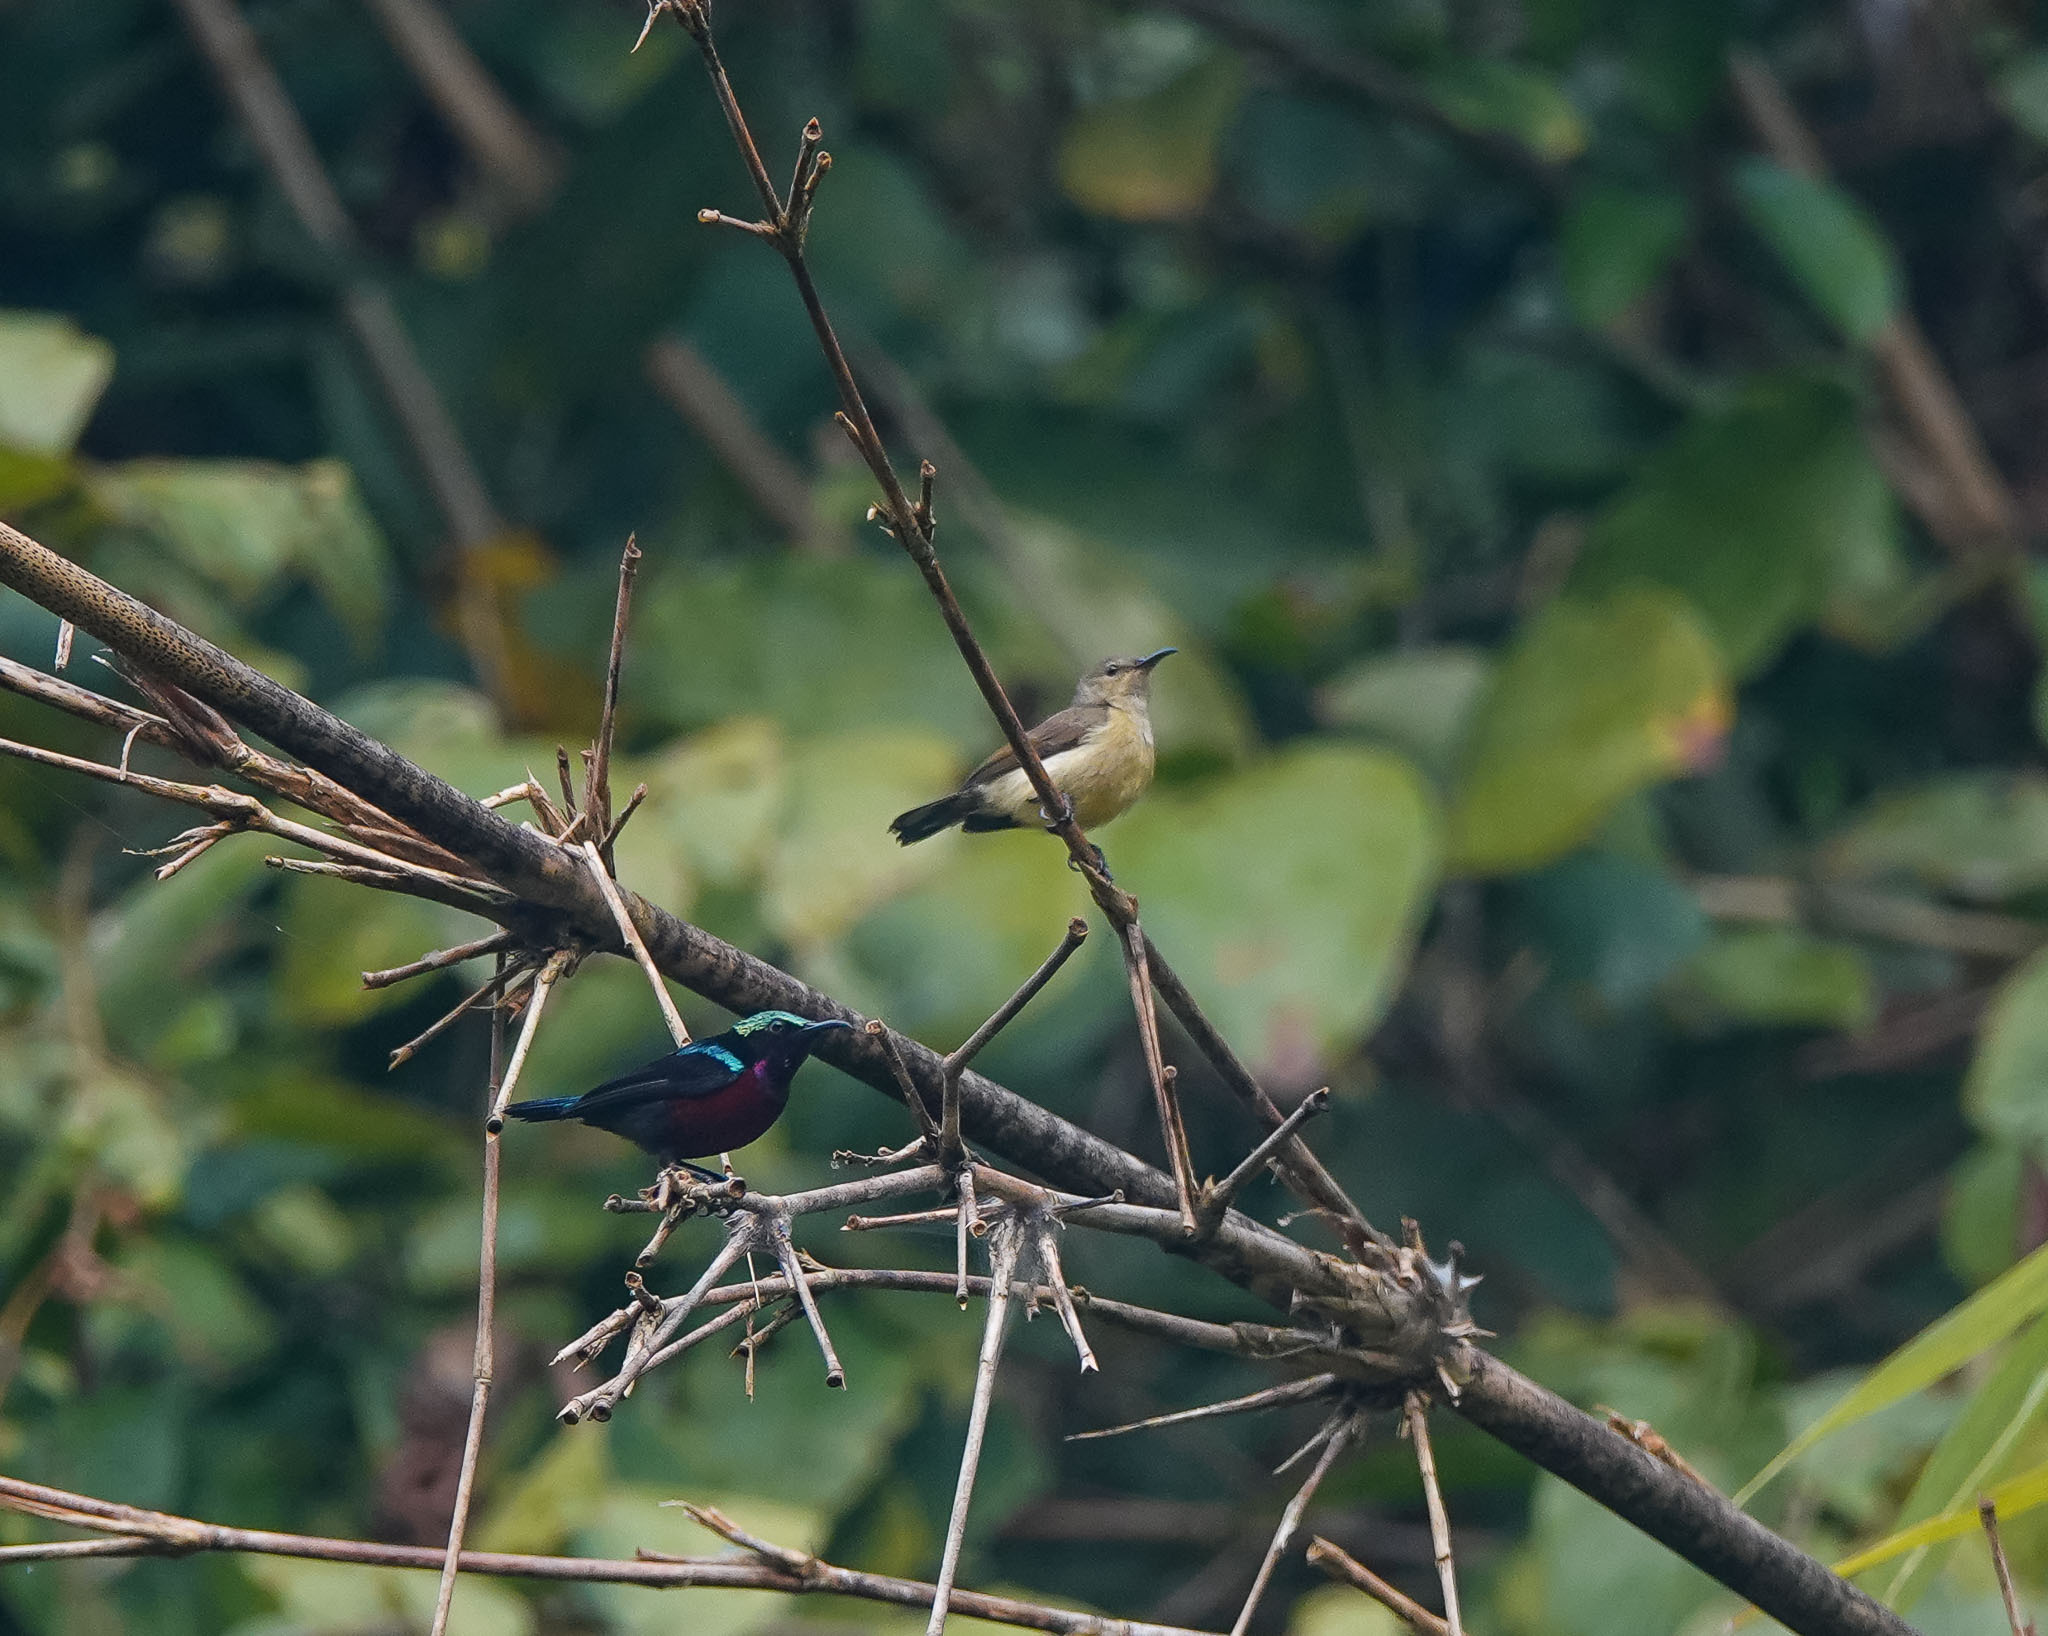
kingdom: Animalia
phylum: Chordata
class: Aves
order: Passeriformes
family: Nectariniidae
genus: Leptocoma
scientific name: Leptocoma brasiliana
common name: Van hasselt's sunbird
